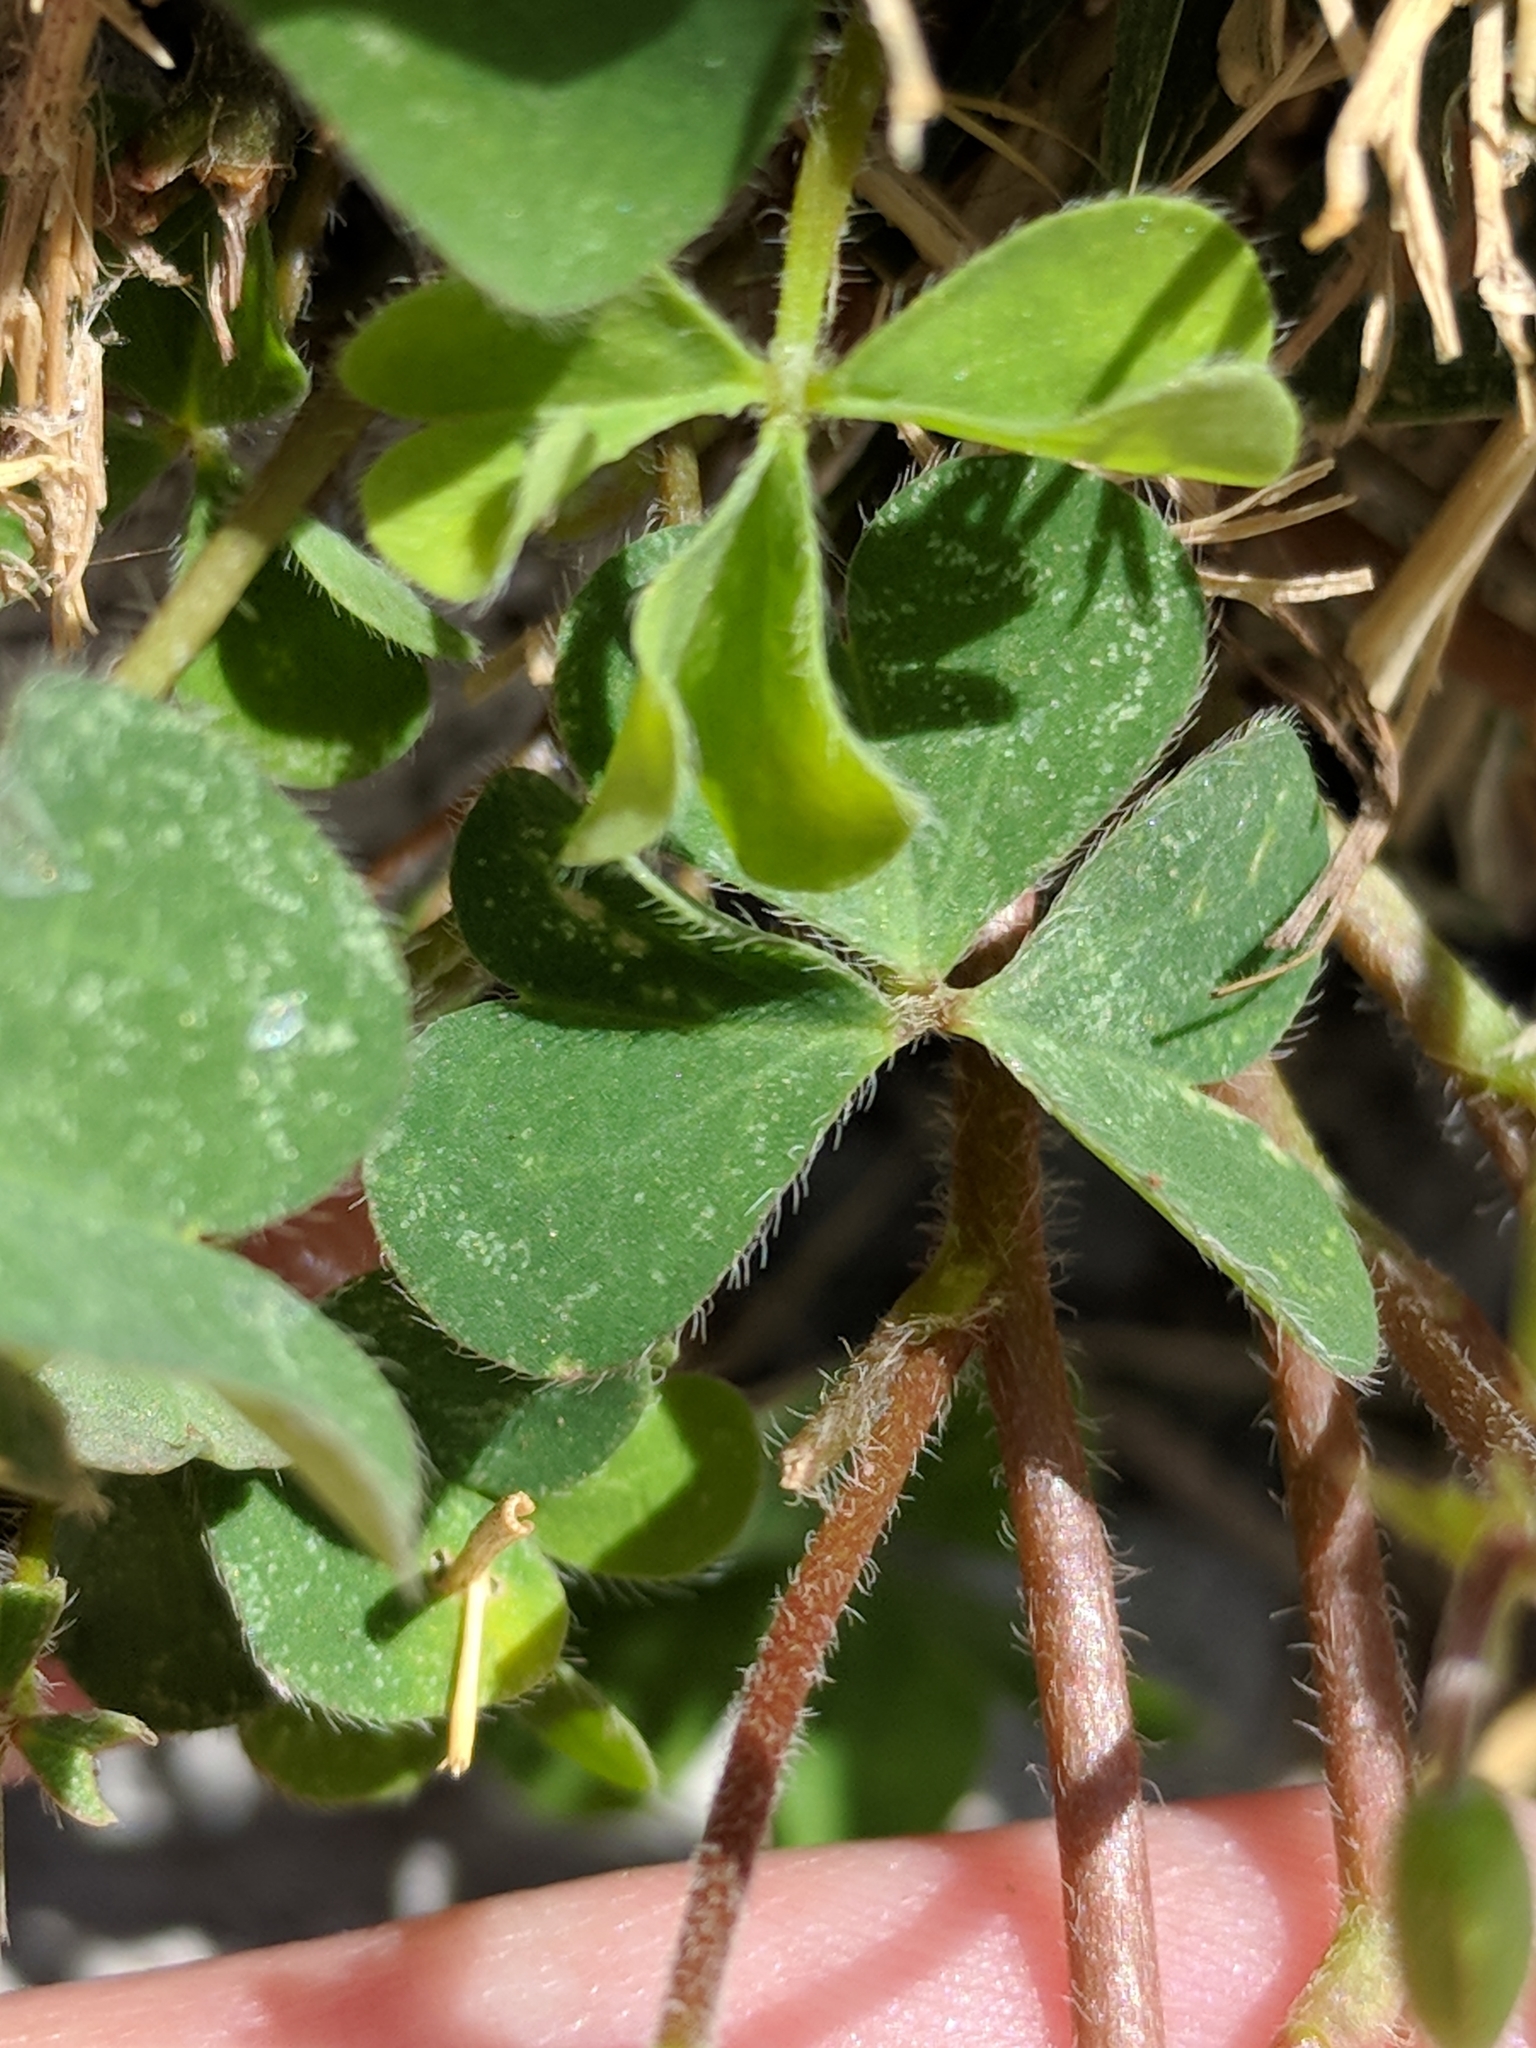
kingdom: Plantae
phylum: Tracheophyta
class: Magnoliopsida
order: Oxalidales
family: Oxalidaceae
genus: Oxalis
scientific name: Oxalis corniculata
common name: Procumbent yellow-sorrel
